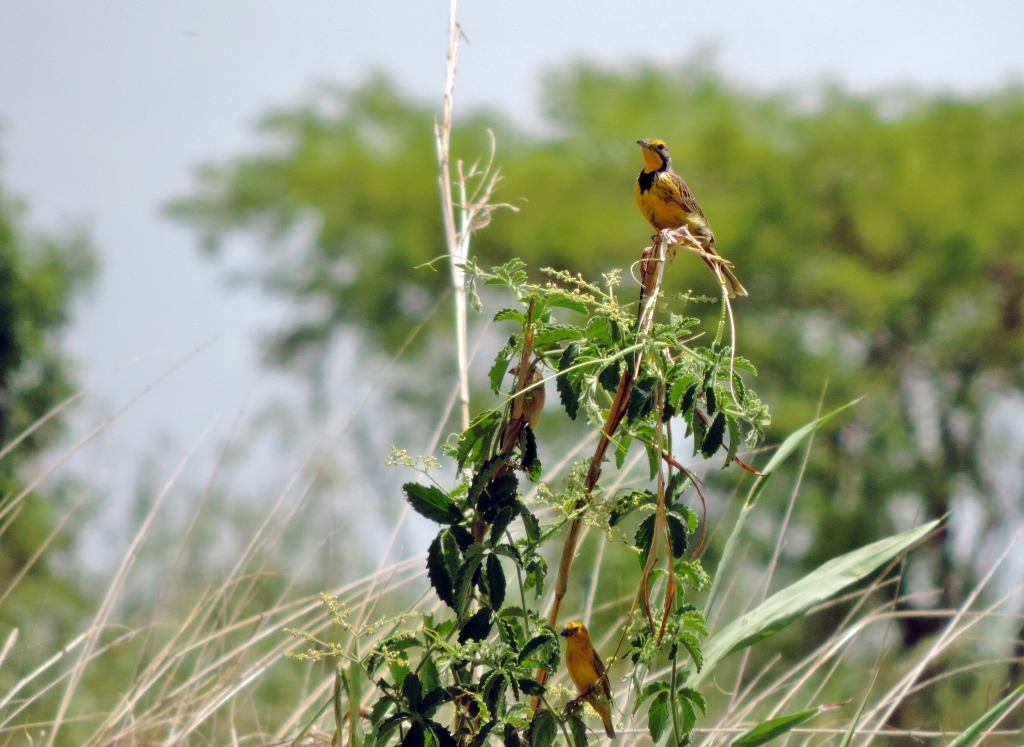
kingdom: Animalia
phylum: Chordata
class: Aves
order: Passeriformes
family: Viduidae
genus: Anomalospiza
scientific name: Anomalospiza imberbis
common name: Cuckoo weaver
